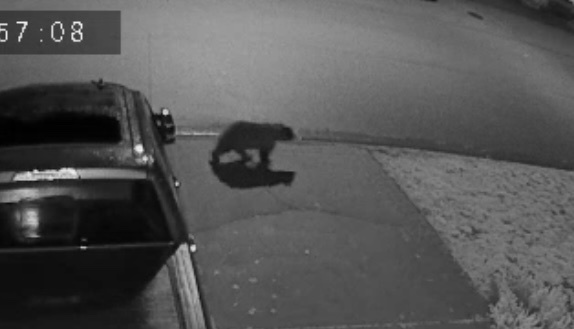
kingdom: Animalia
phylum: Chordata
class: Mammalia
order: Carnivora
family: Ursidae
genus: Ursus
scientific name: Ursus americanus
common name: American black bear
